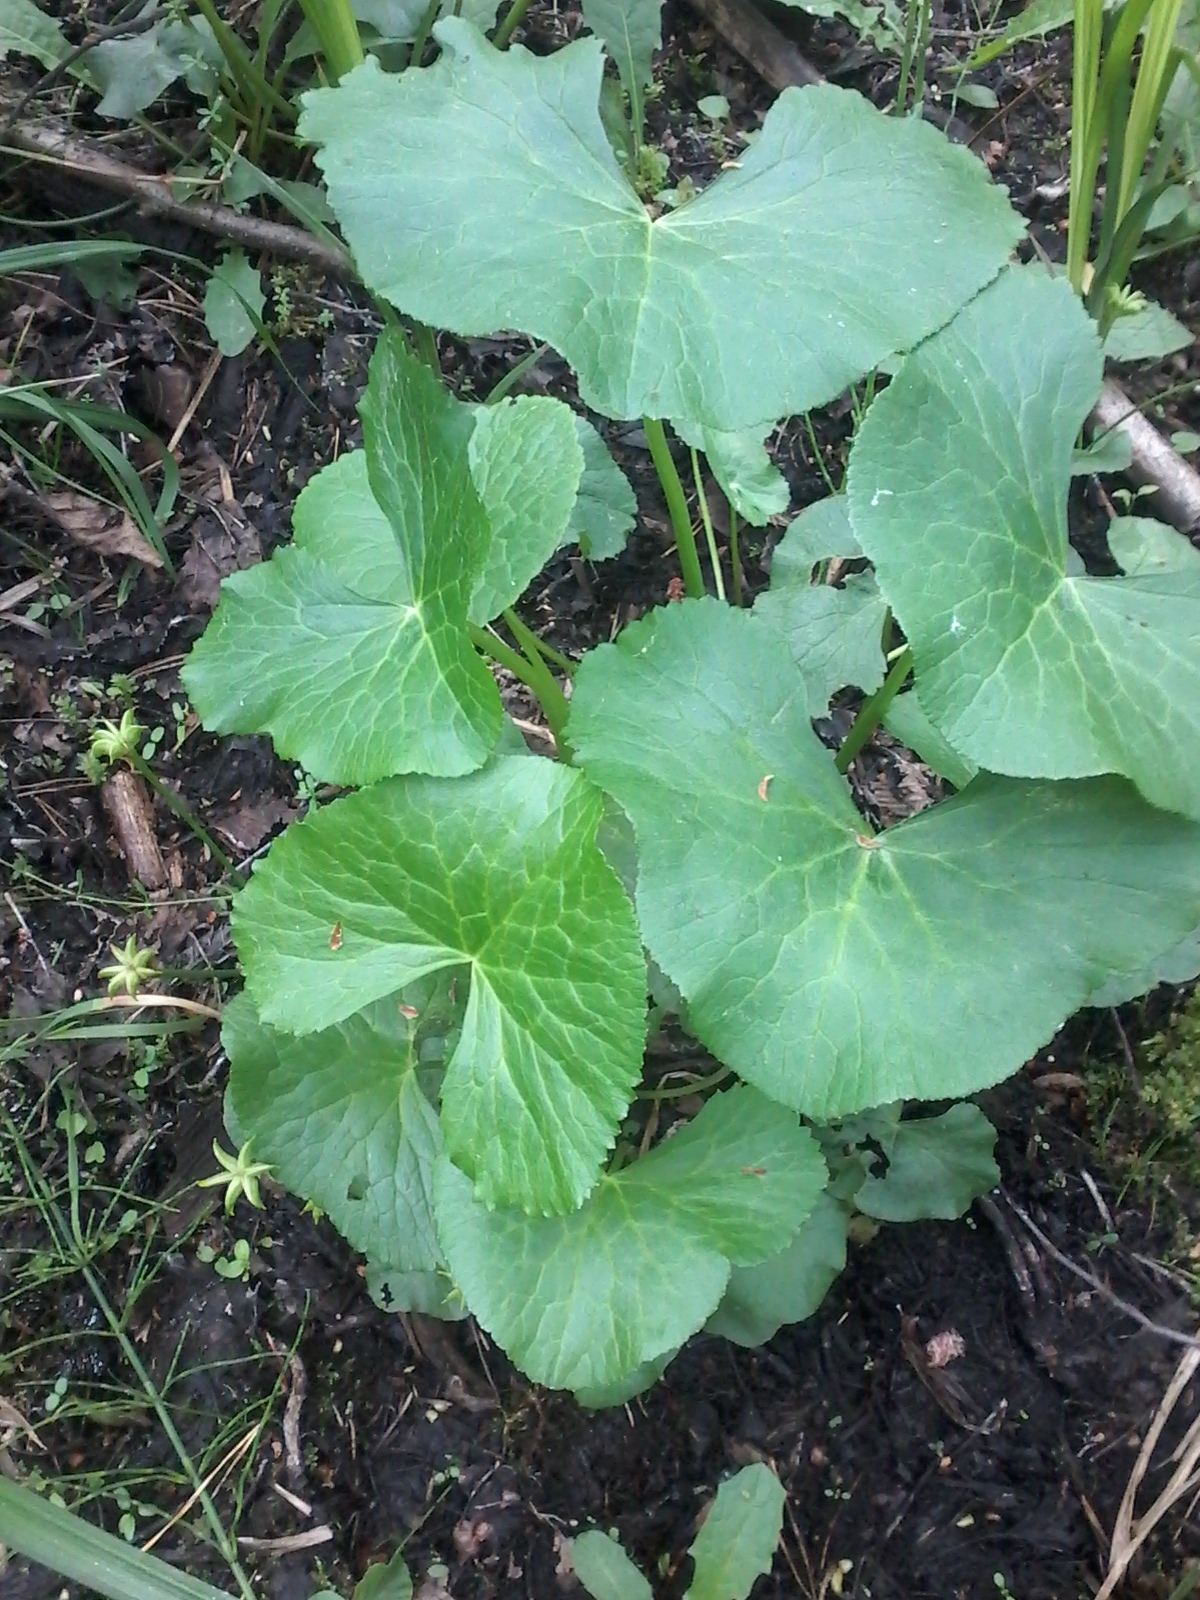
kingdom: Plantae
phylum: Tracheophyta
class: Magnoliopsida
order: Ranunculales
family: Ranunculaceae
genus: Caltha
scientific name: Caltha palustris
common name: Marsh marigold
